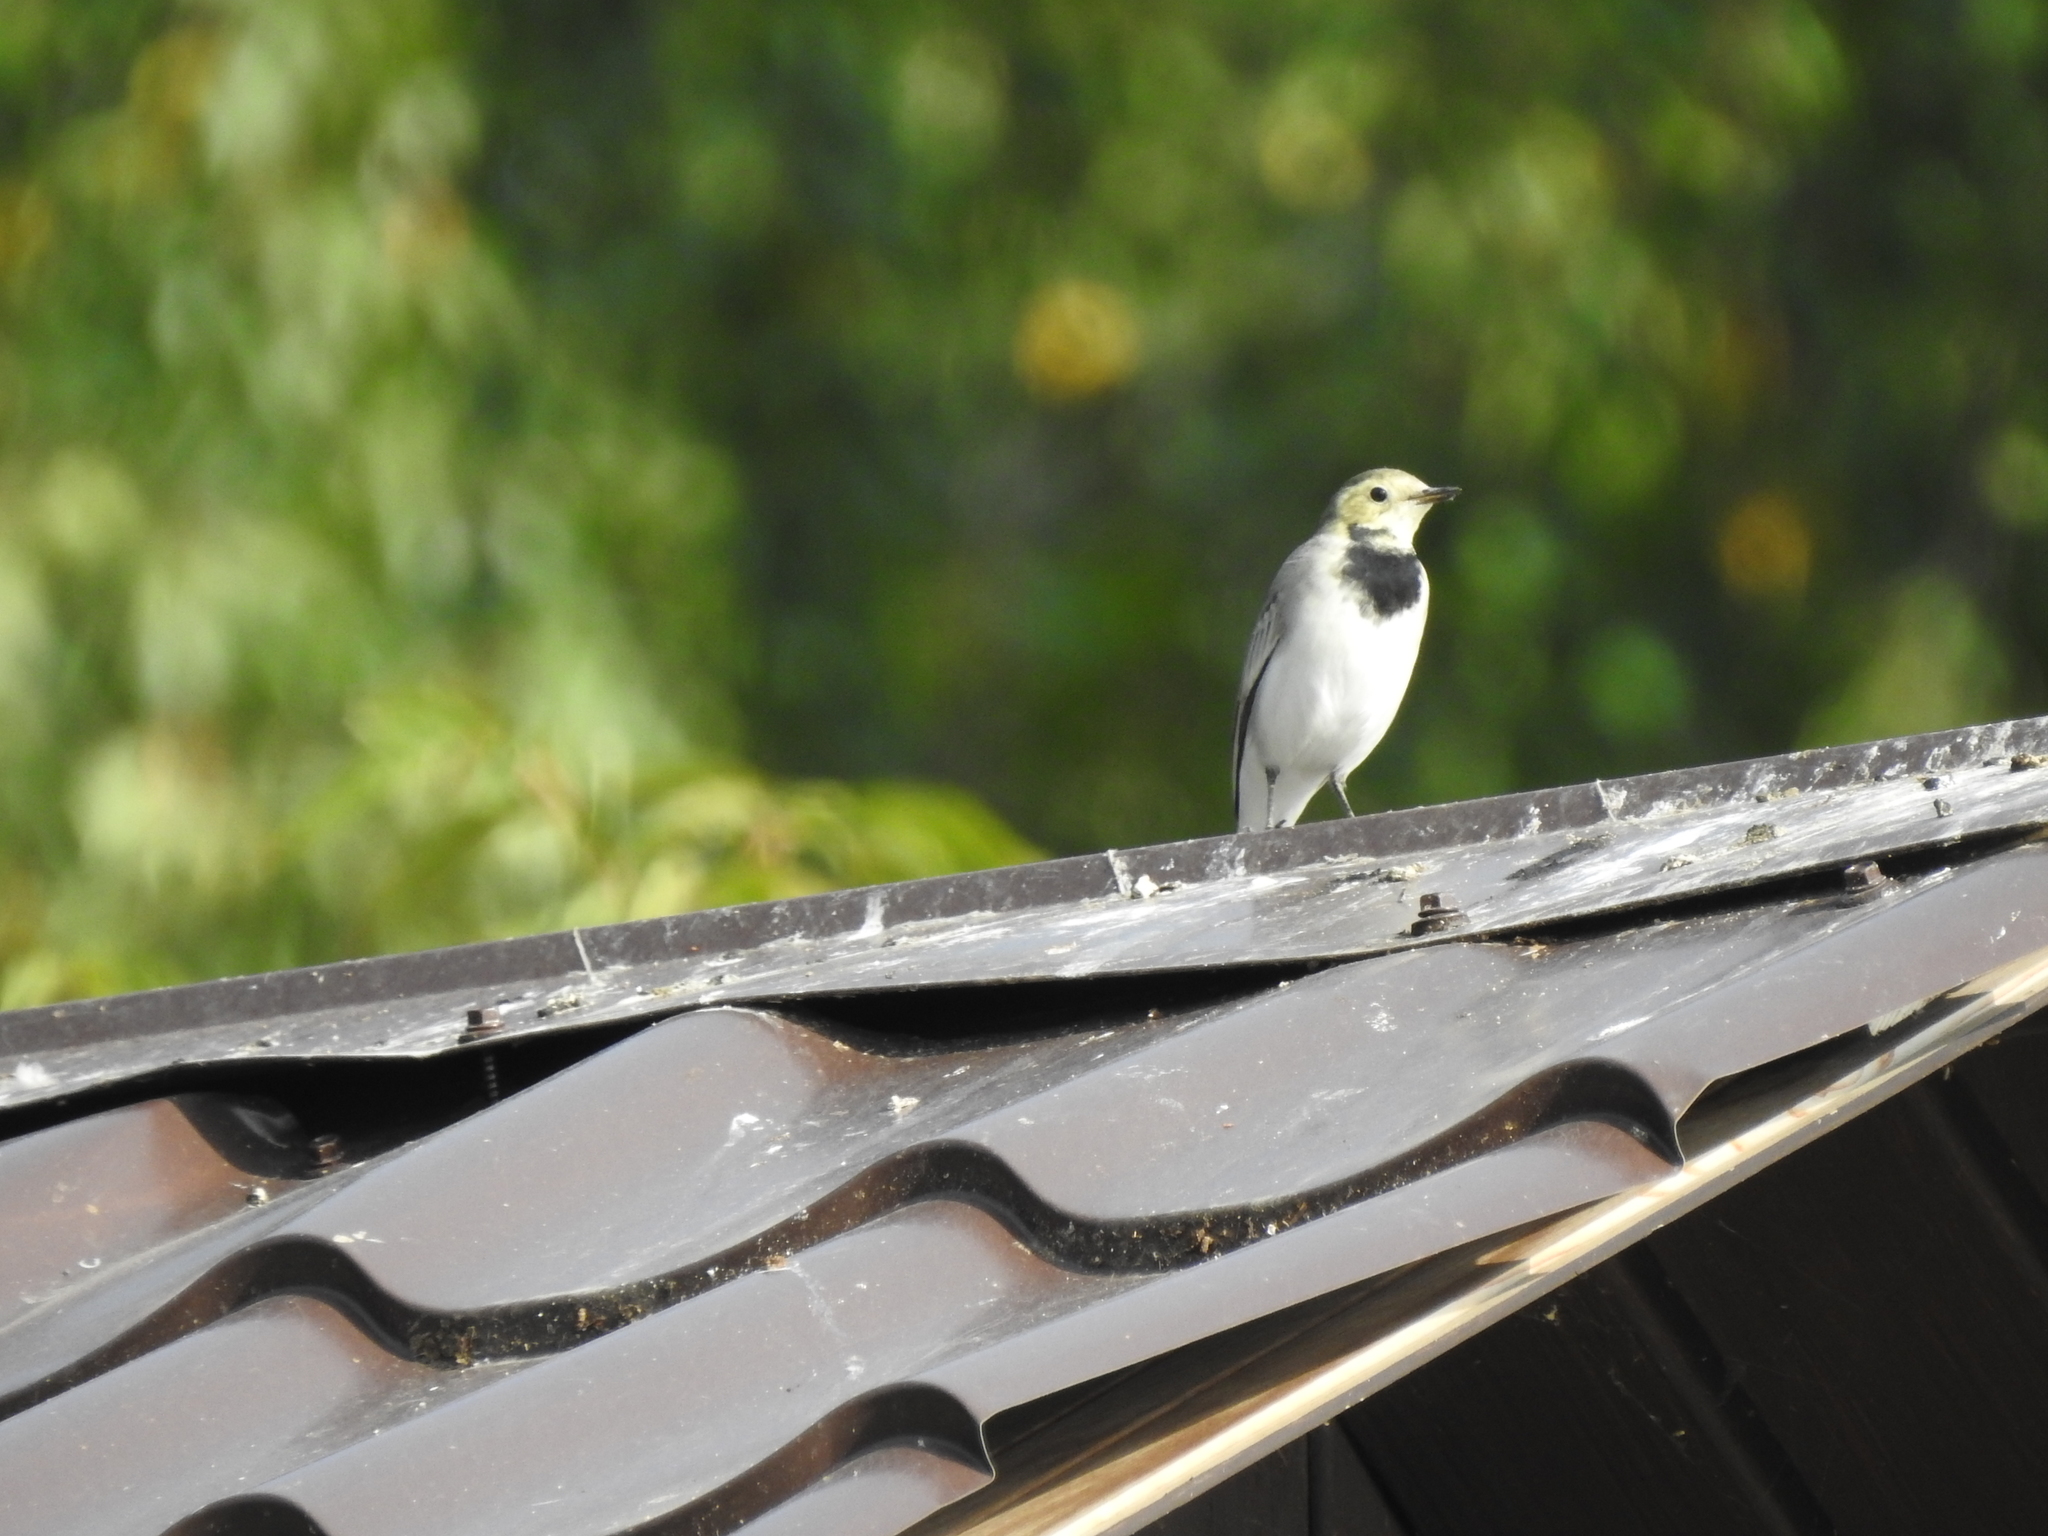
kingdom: Animalia
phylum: Chordata
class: Aves
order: Passeriformes
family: Motacillidae
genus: Motacilla
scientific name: Motacilla alba
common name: White wagtail
